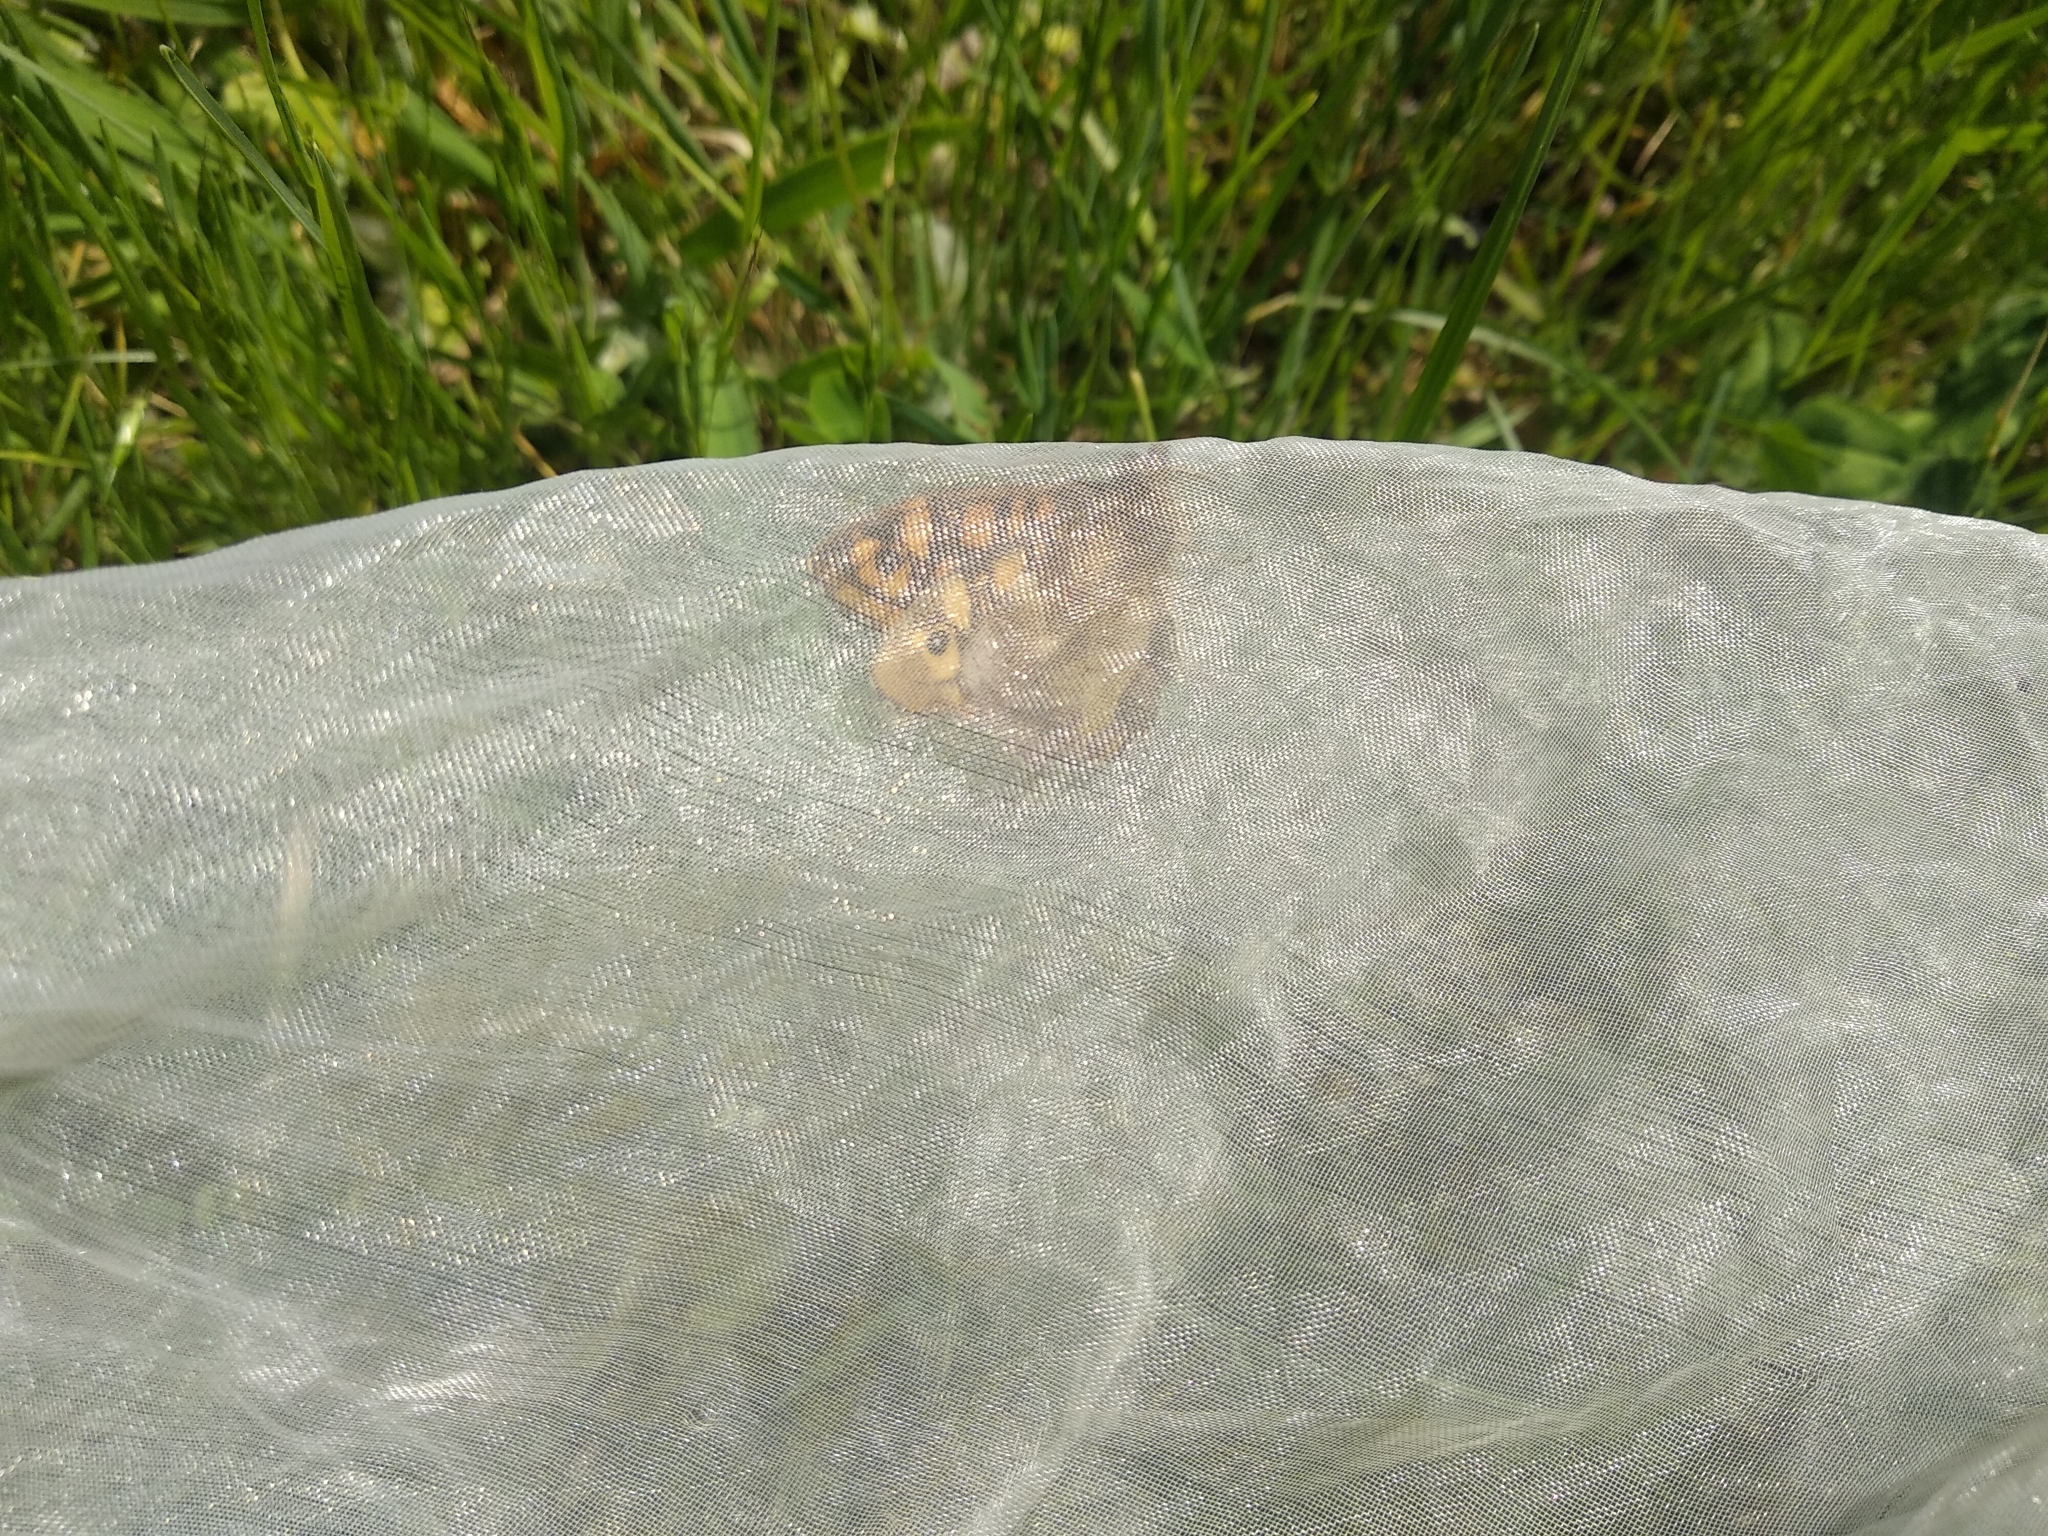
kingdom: Animalia
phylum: Arthropoda
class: Insecta
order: Lepidoptera
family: Nymphalidae
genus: Pararge
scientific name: Pararge aegeria
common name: Speckled wood
